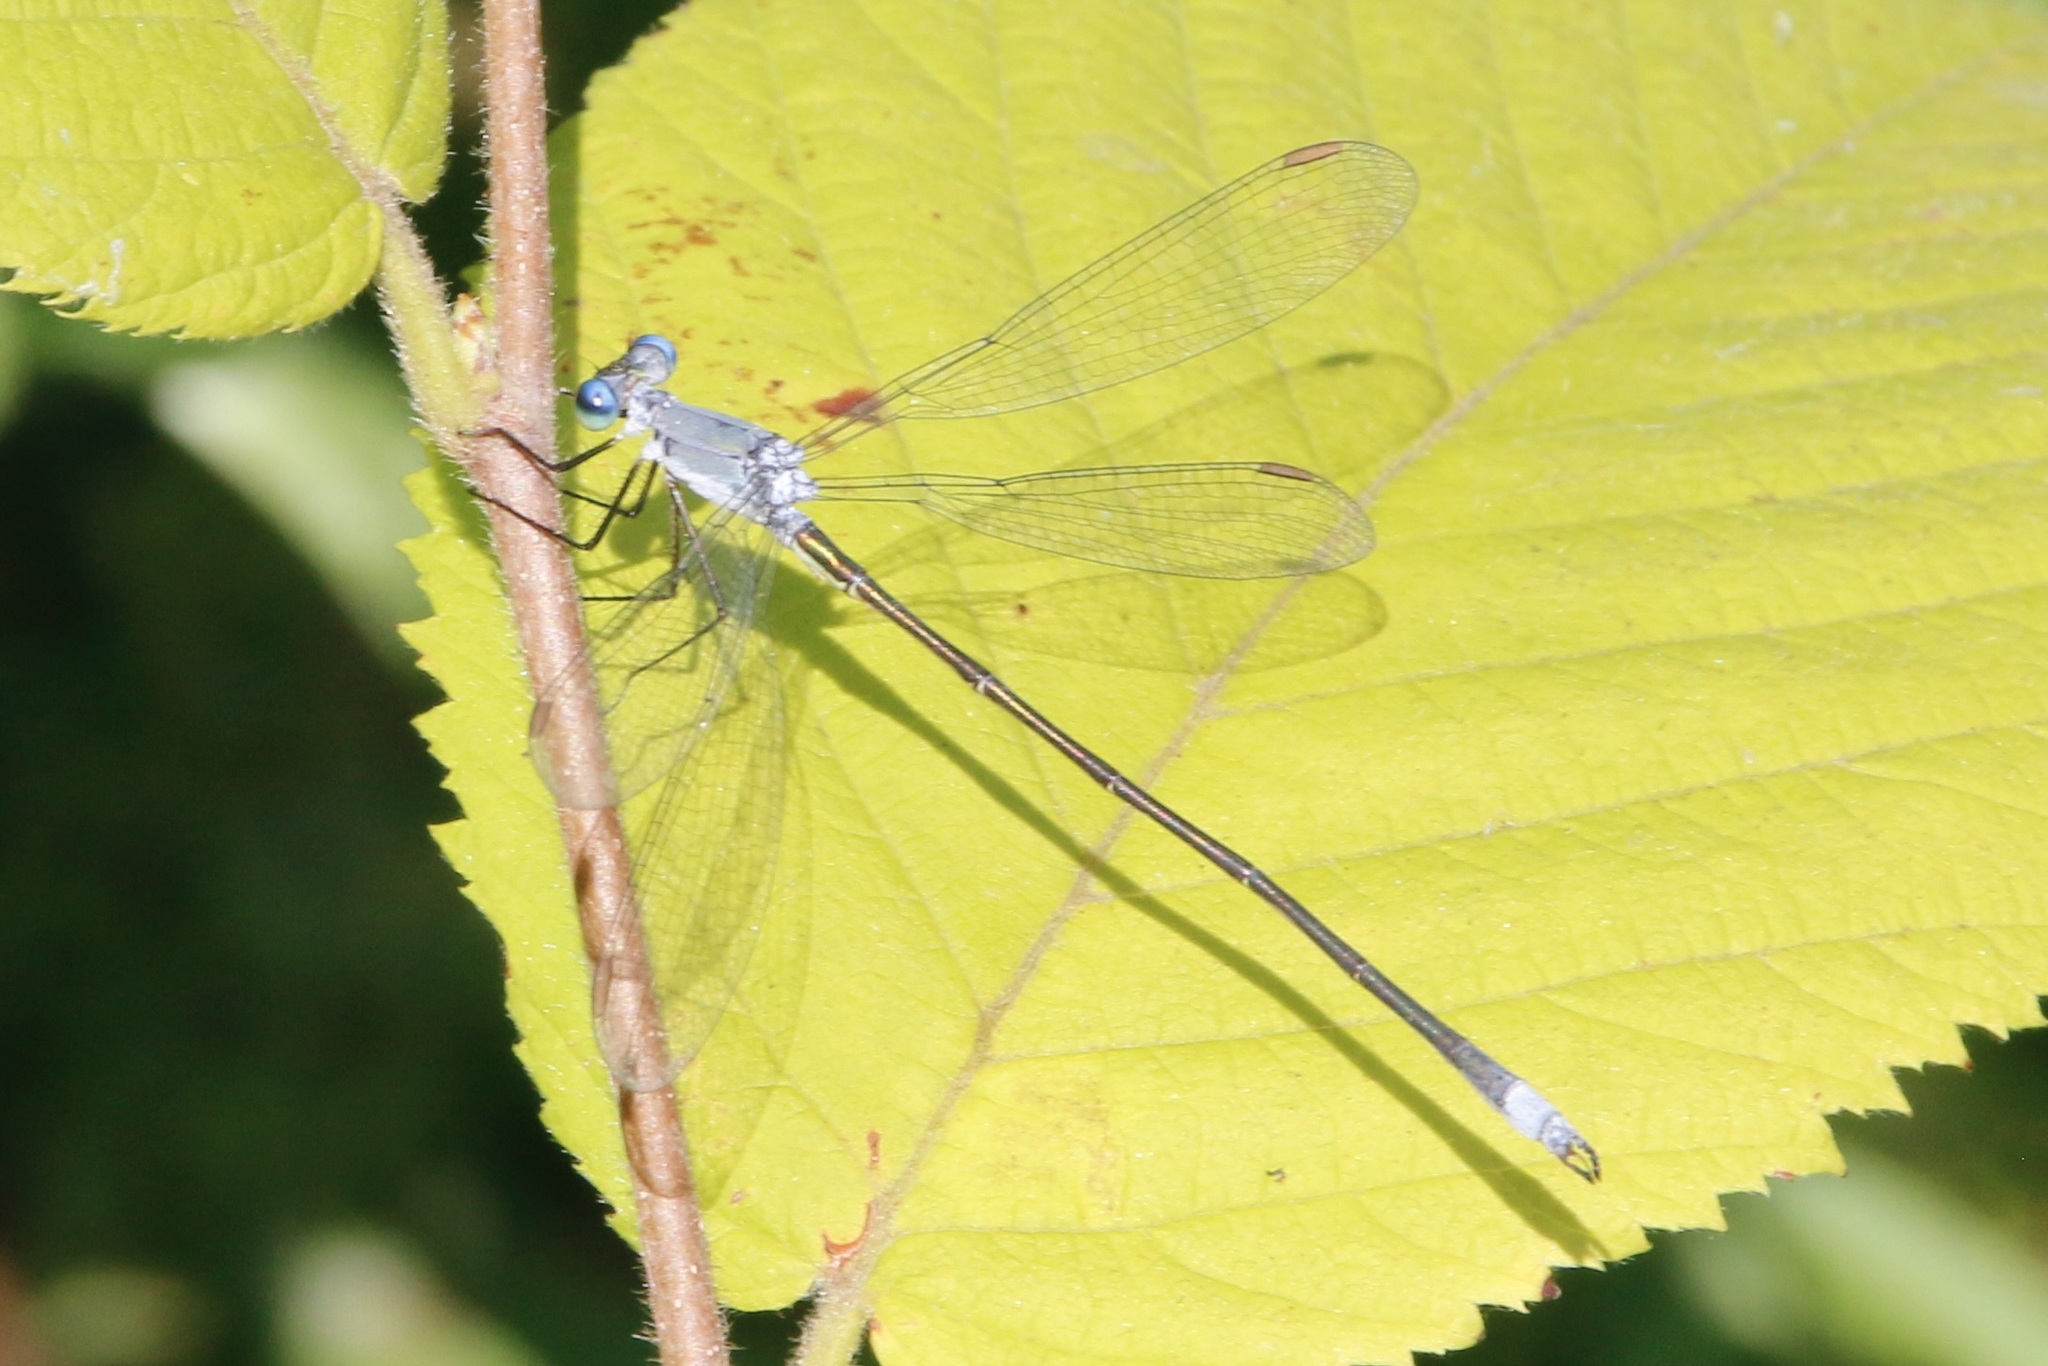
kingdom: Animalia
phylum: Arthropoda
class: Insecta
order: Odonata
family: Lestidae
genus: Lestes
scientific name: Lestes vigilax
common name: Swamp spreadwing
